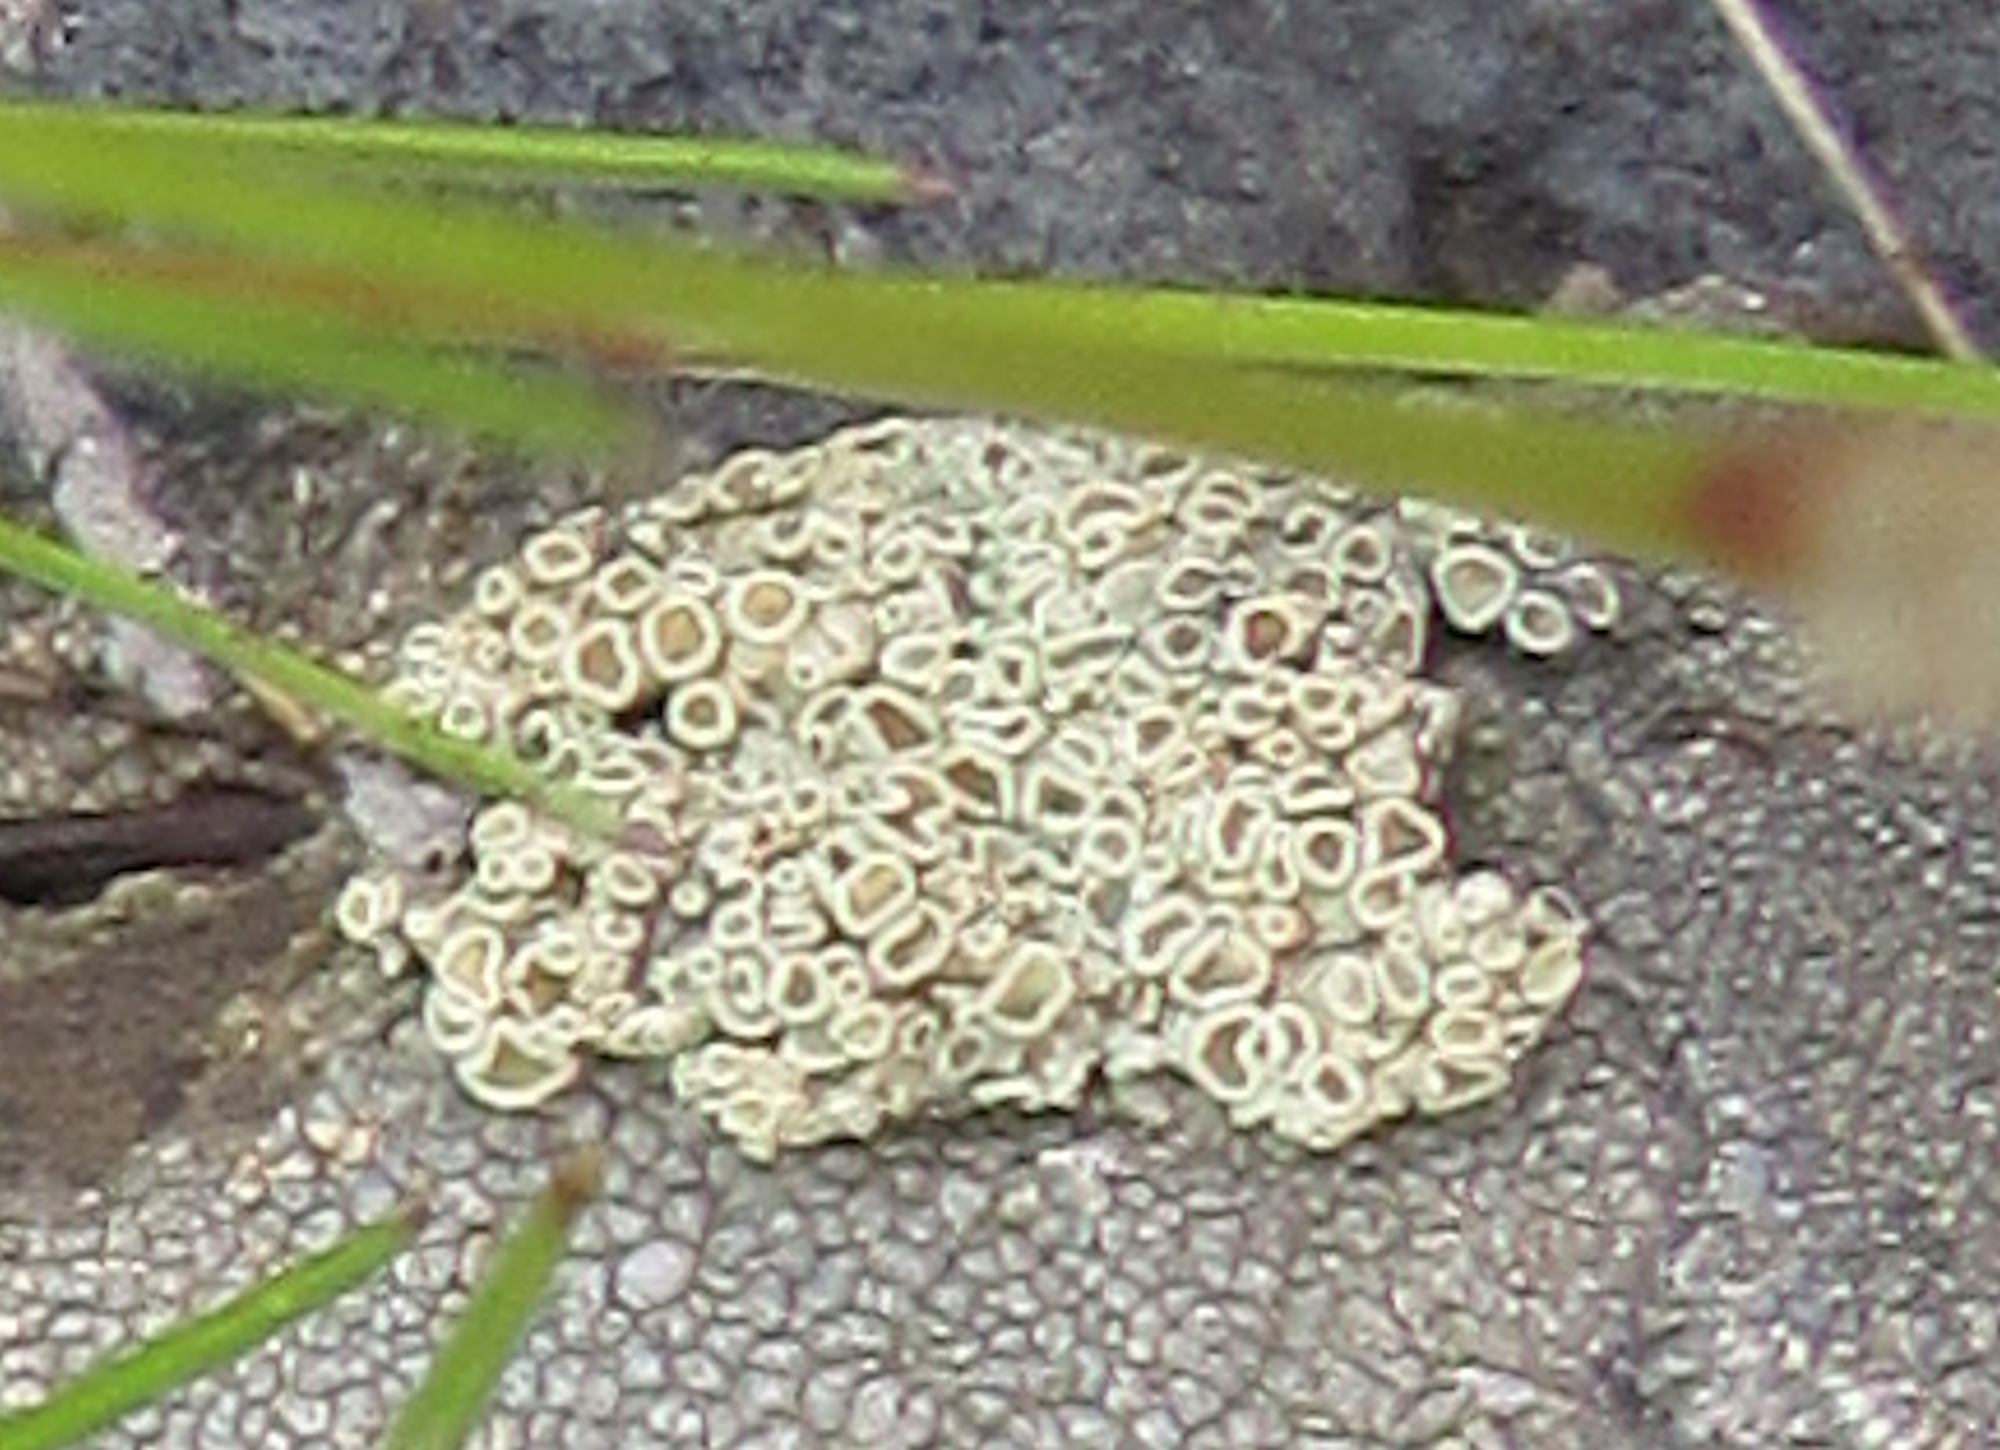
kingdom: Fungi
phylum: Ascomycota
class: Lecanoromycetes
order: Lecanorales
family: Lecanoraceae
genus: Omphalodina
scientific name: Omphalodina chrysoleuca
